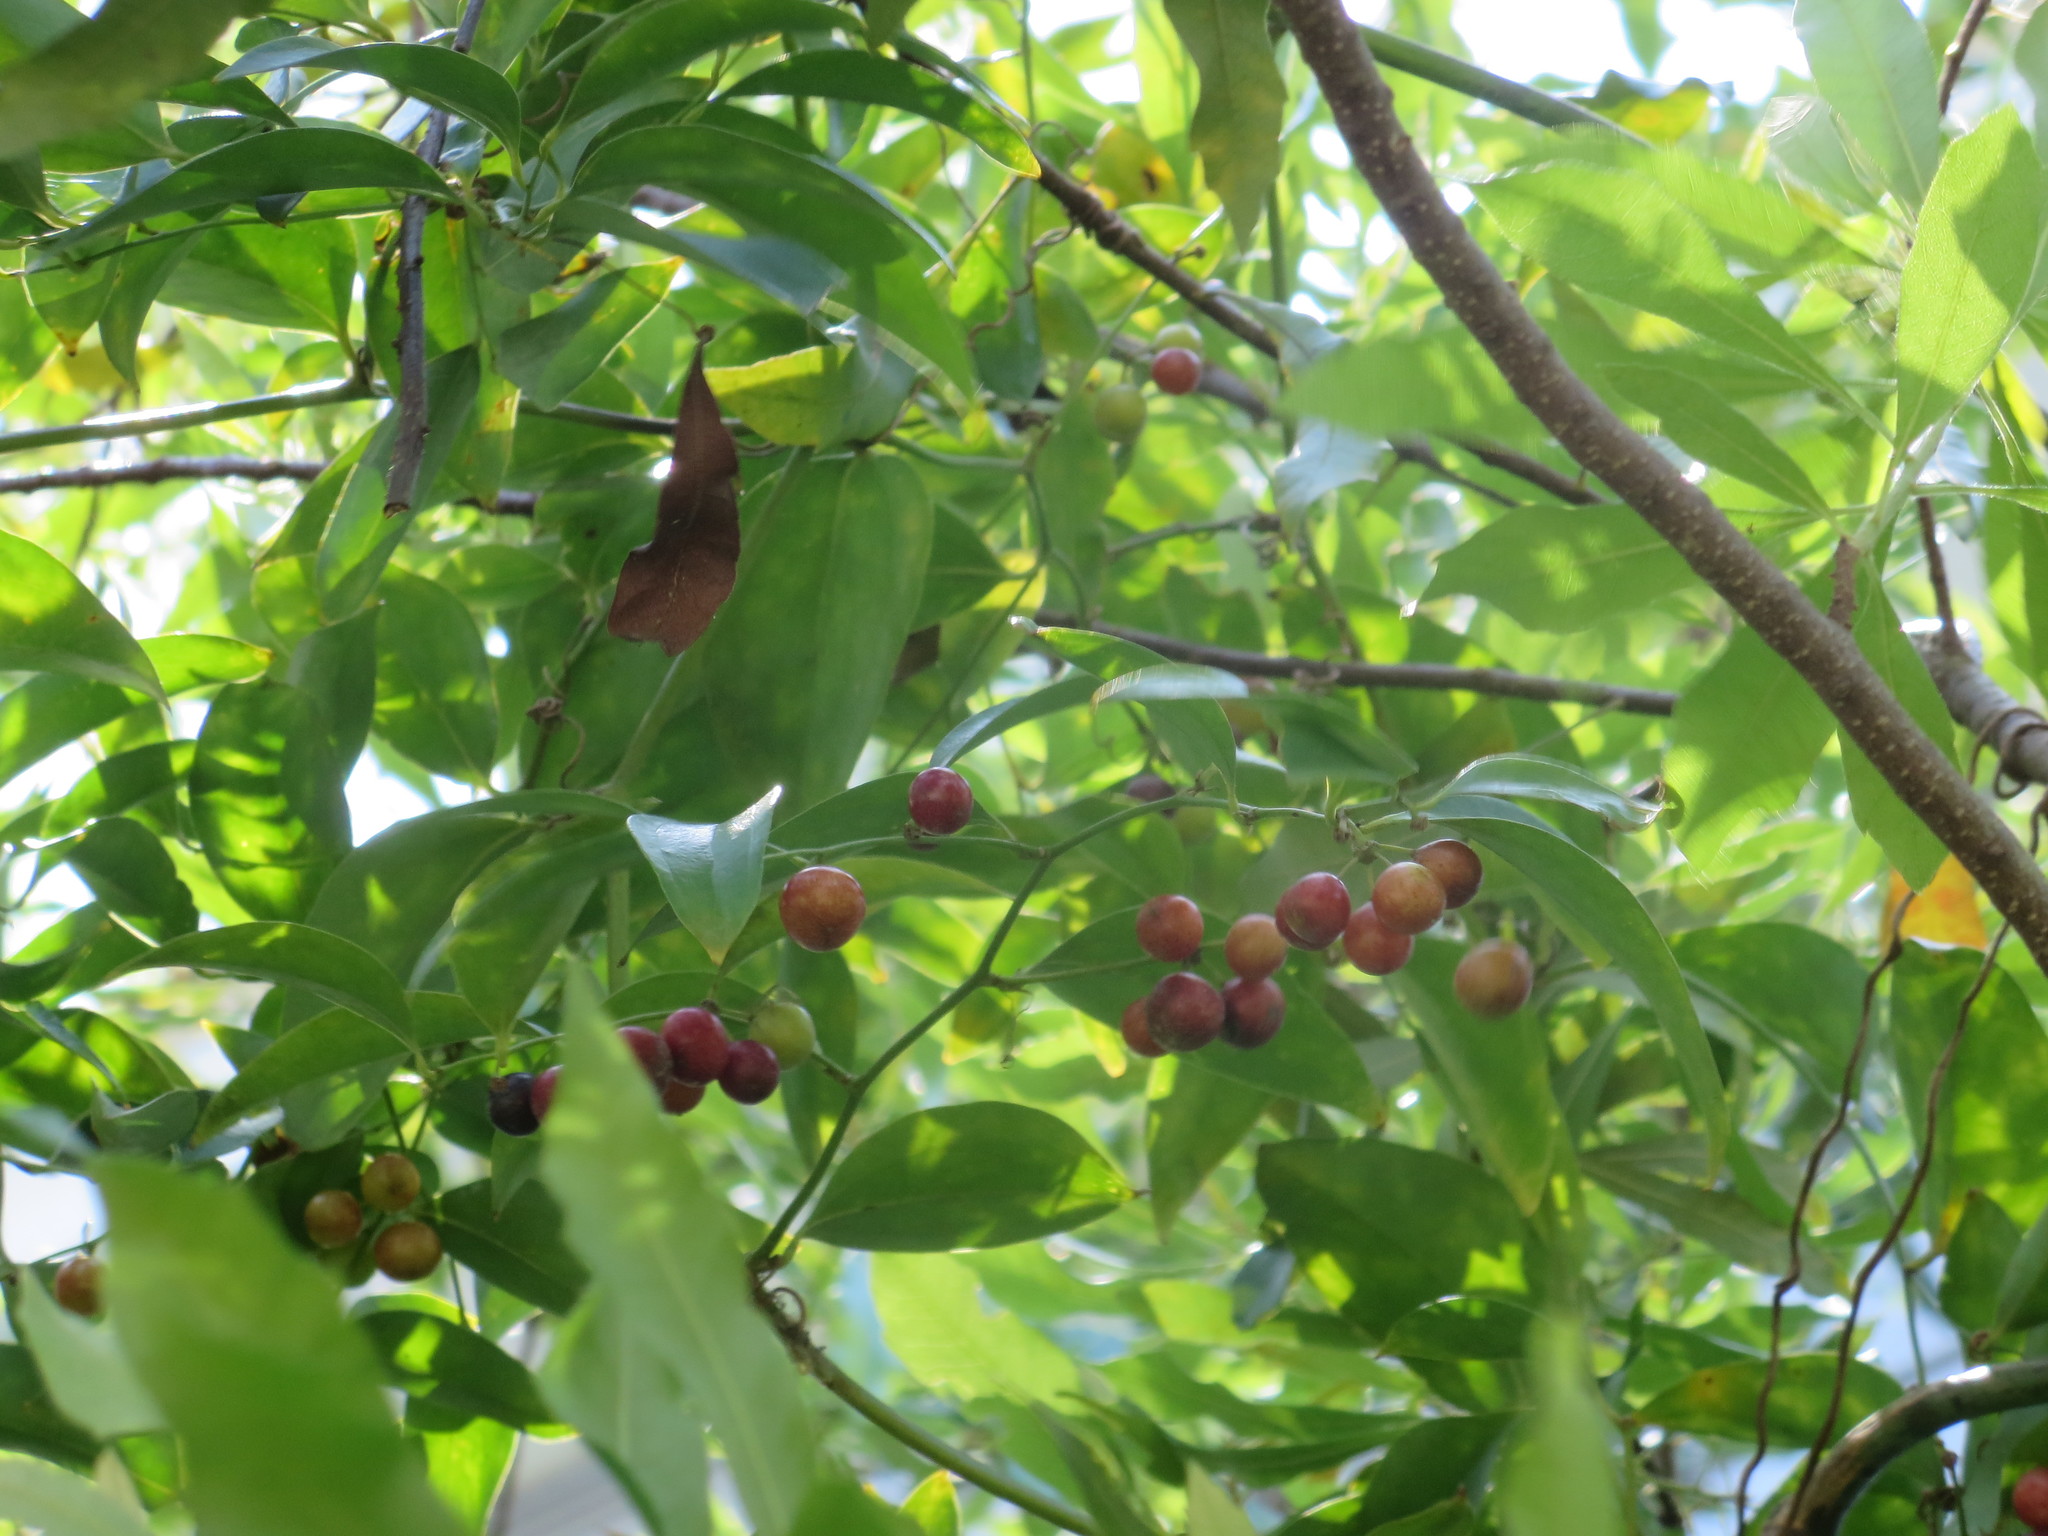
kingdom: Plantae
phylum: Tracheophyta
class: Liliopsida
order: Liliales
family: Smilacaceae
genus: Smilax
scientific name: Smilax maritima
